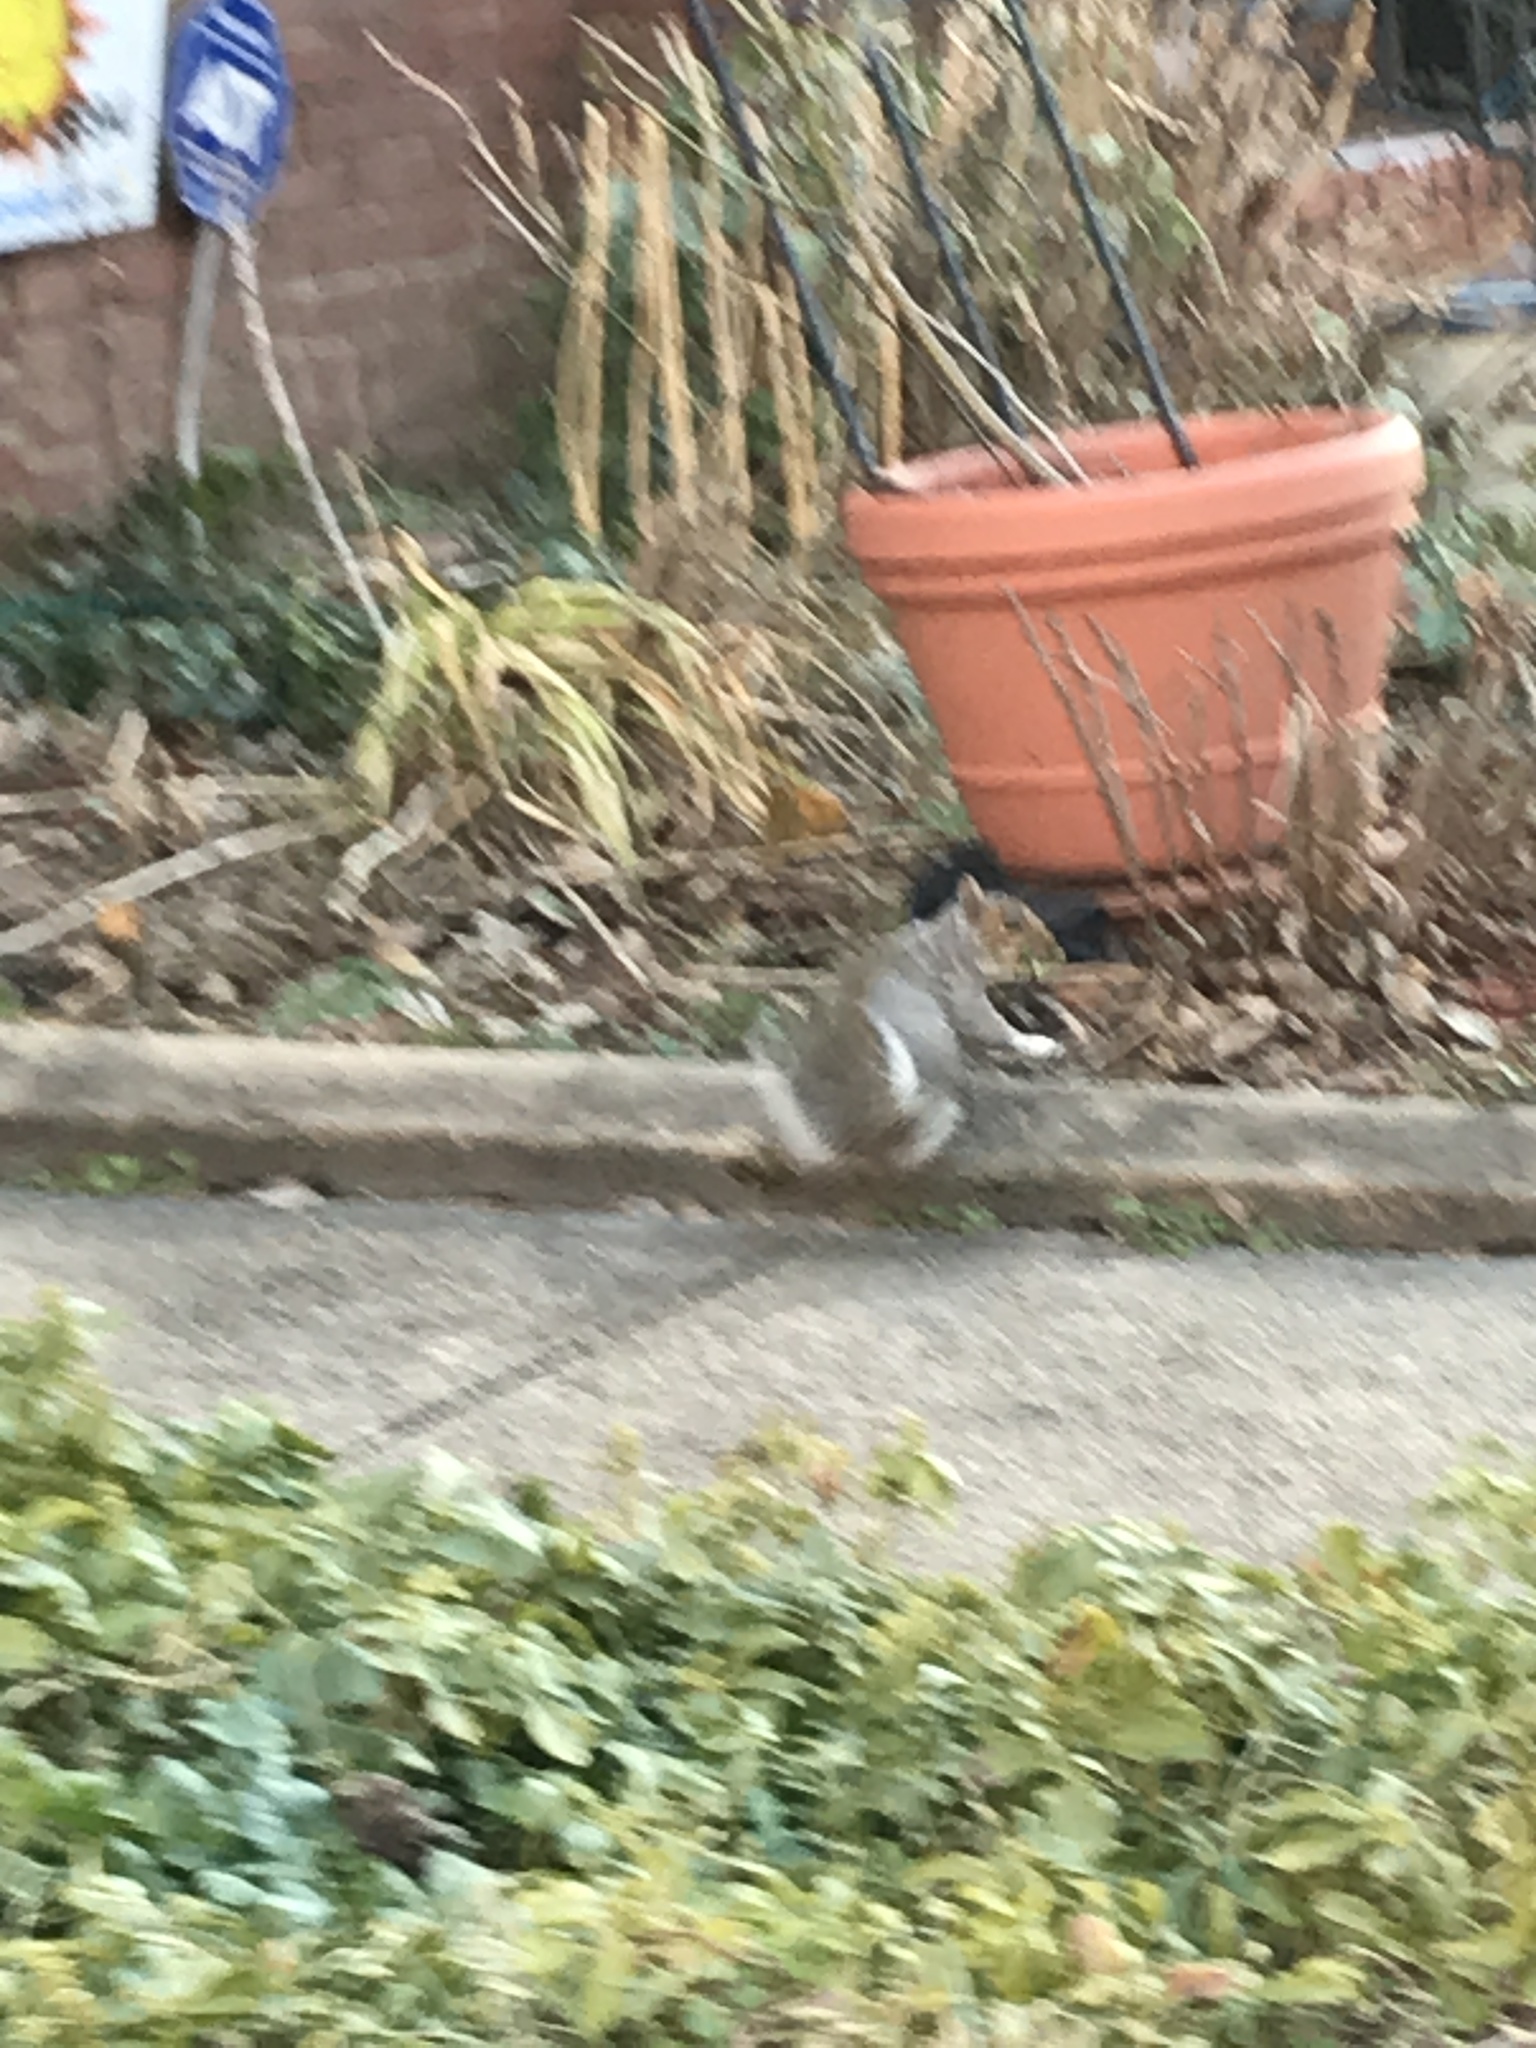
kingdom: Animalia
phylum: Chordata
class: Mammalia
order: Rodentia
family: Sciuridae
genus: Sciurus
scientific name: Sciurus carolinensis
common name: Eastern gray squirrel
